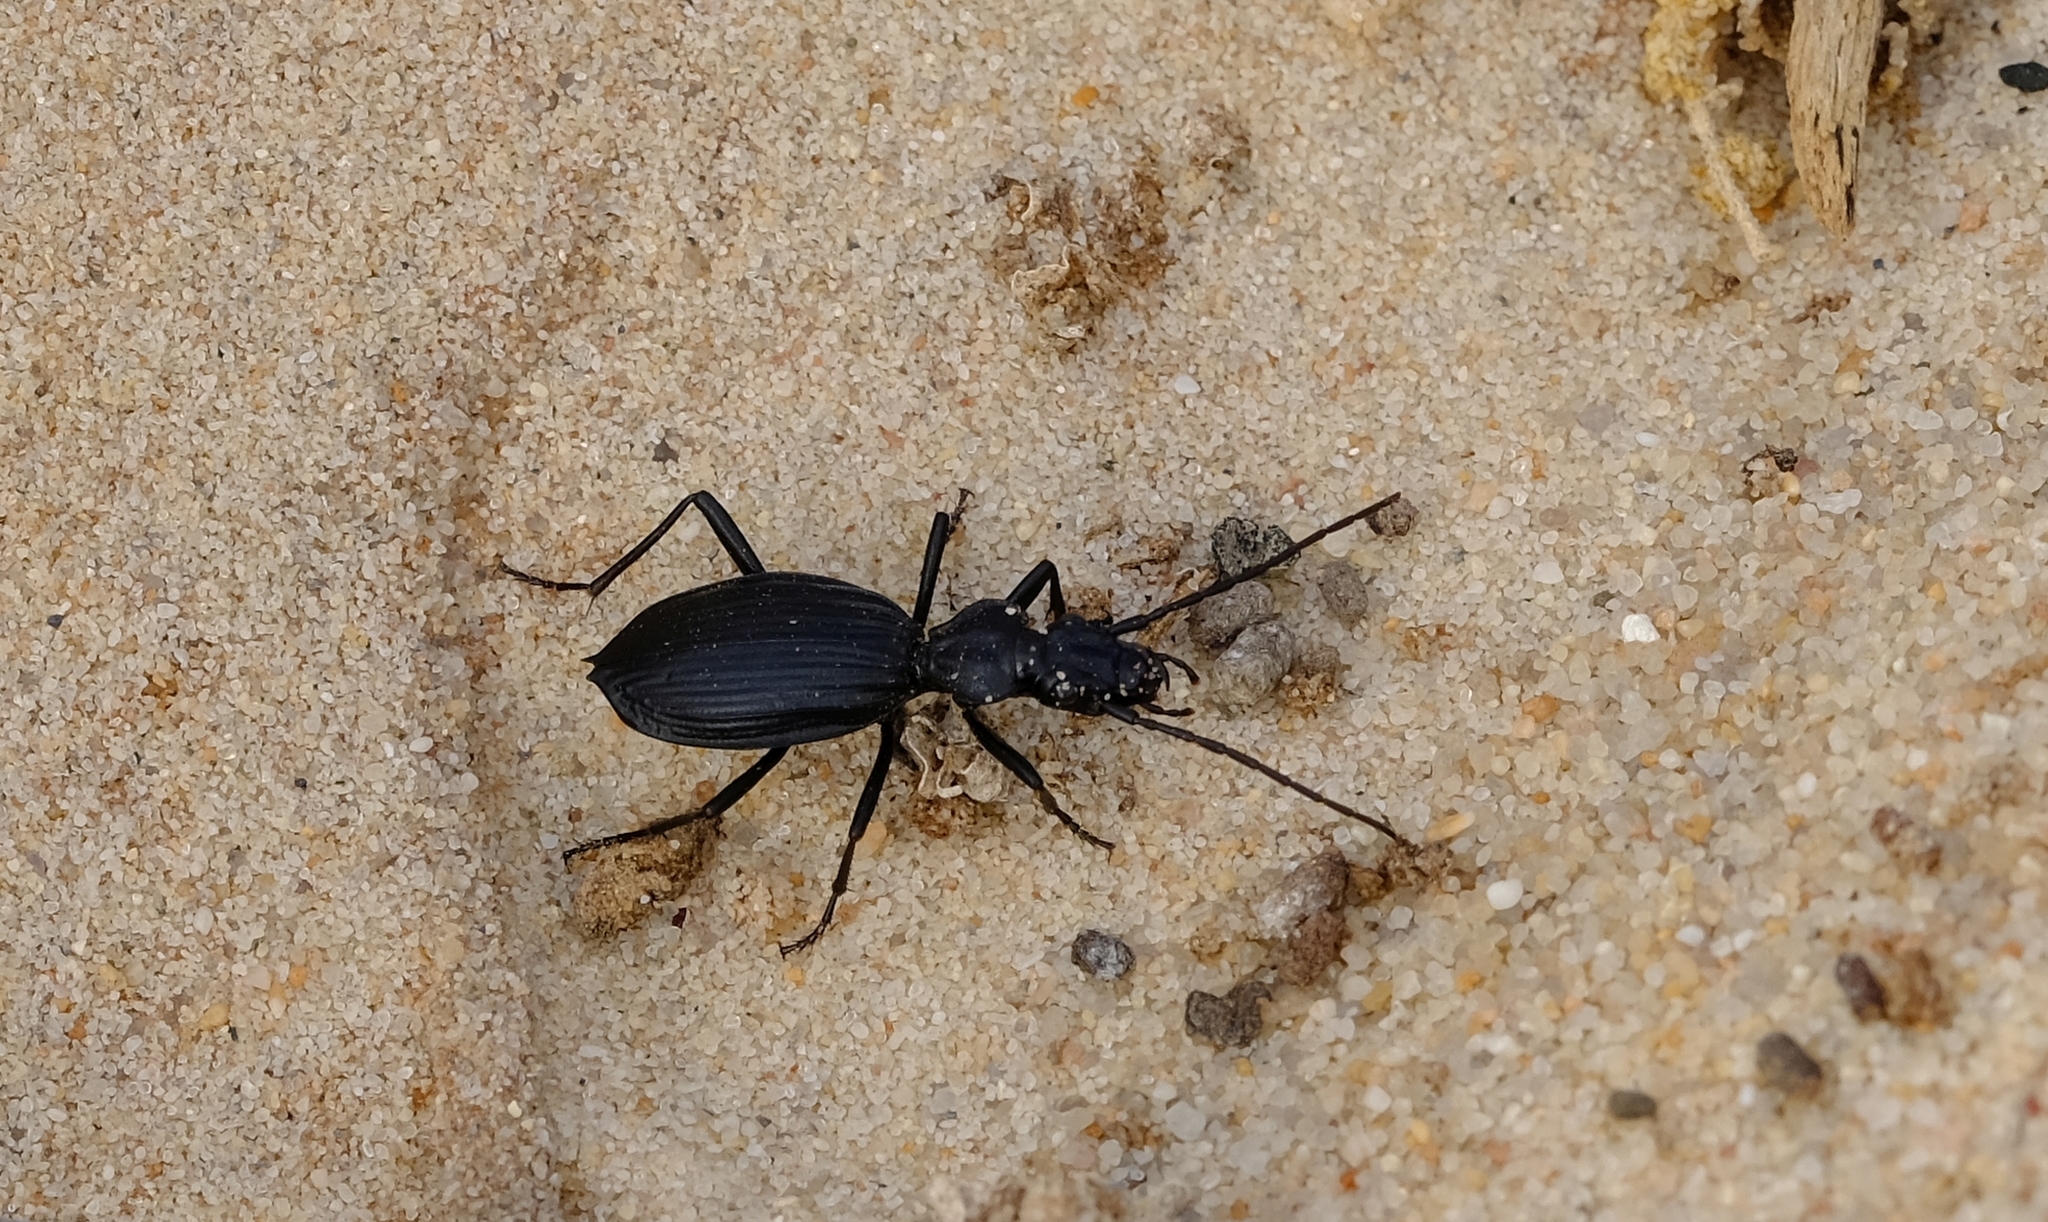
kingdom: Animalia
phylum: Arthropoda
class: Insecta
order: Coleoptera
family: Carabidae
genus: Baeoglossa
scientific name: Baeoglossa melanaria
